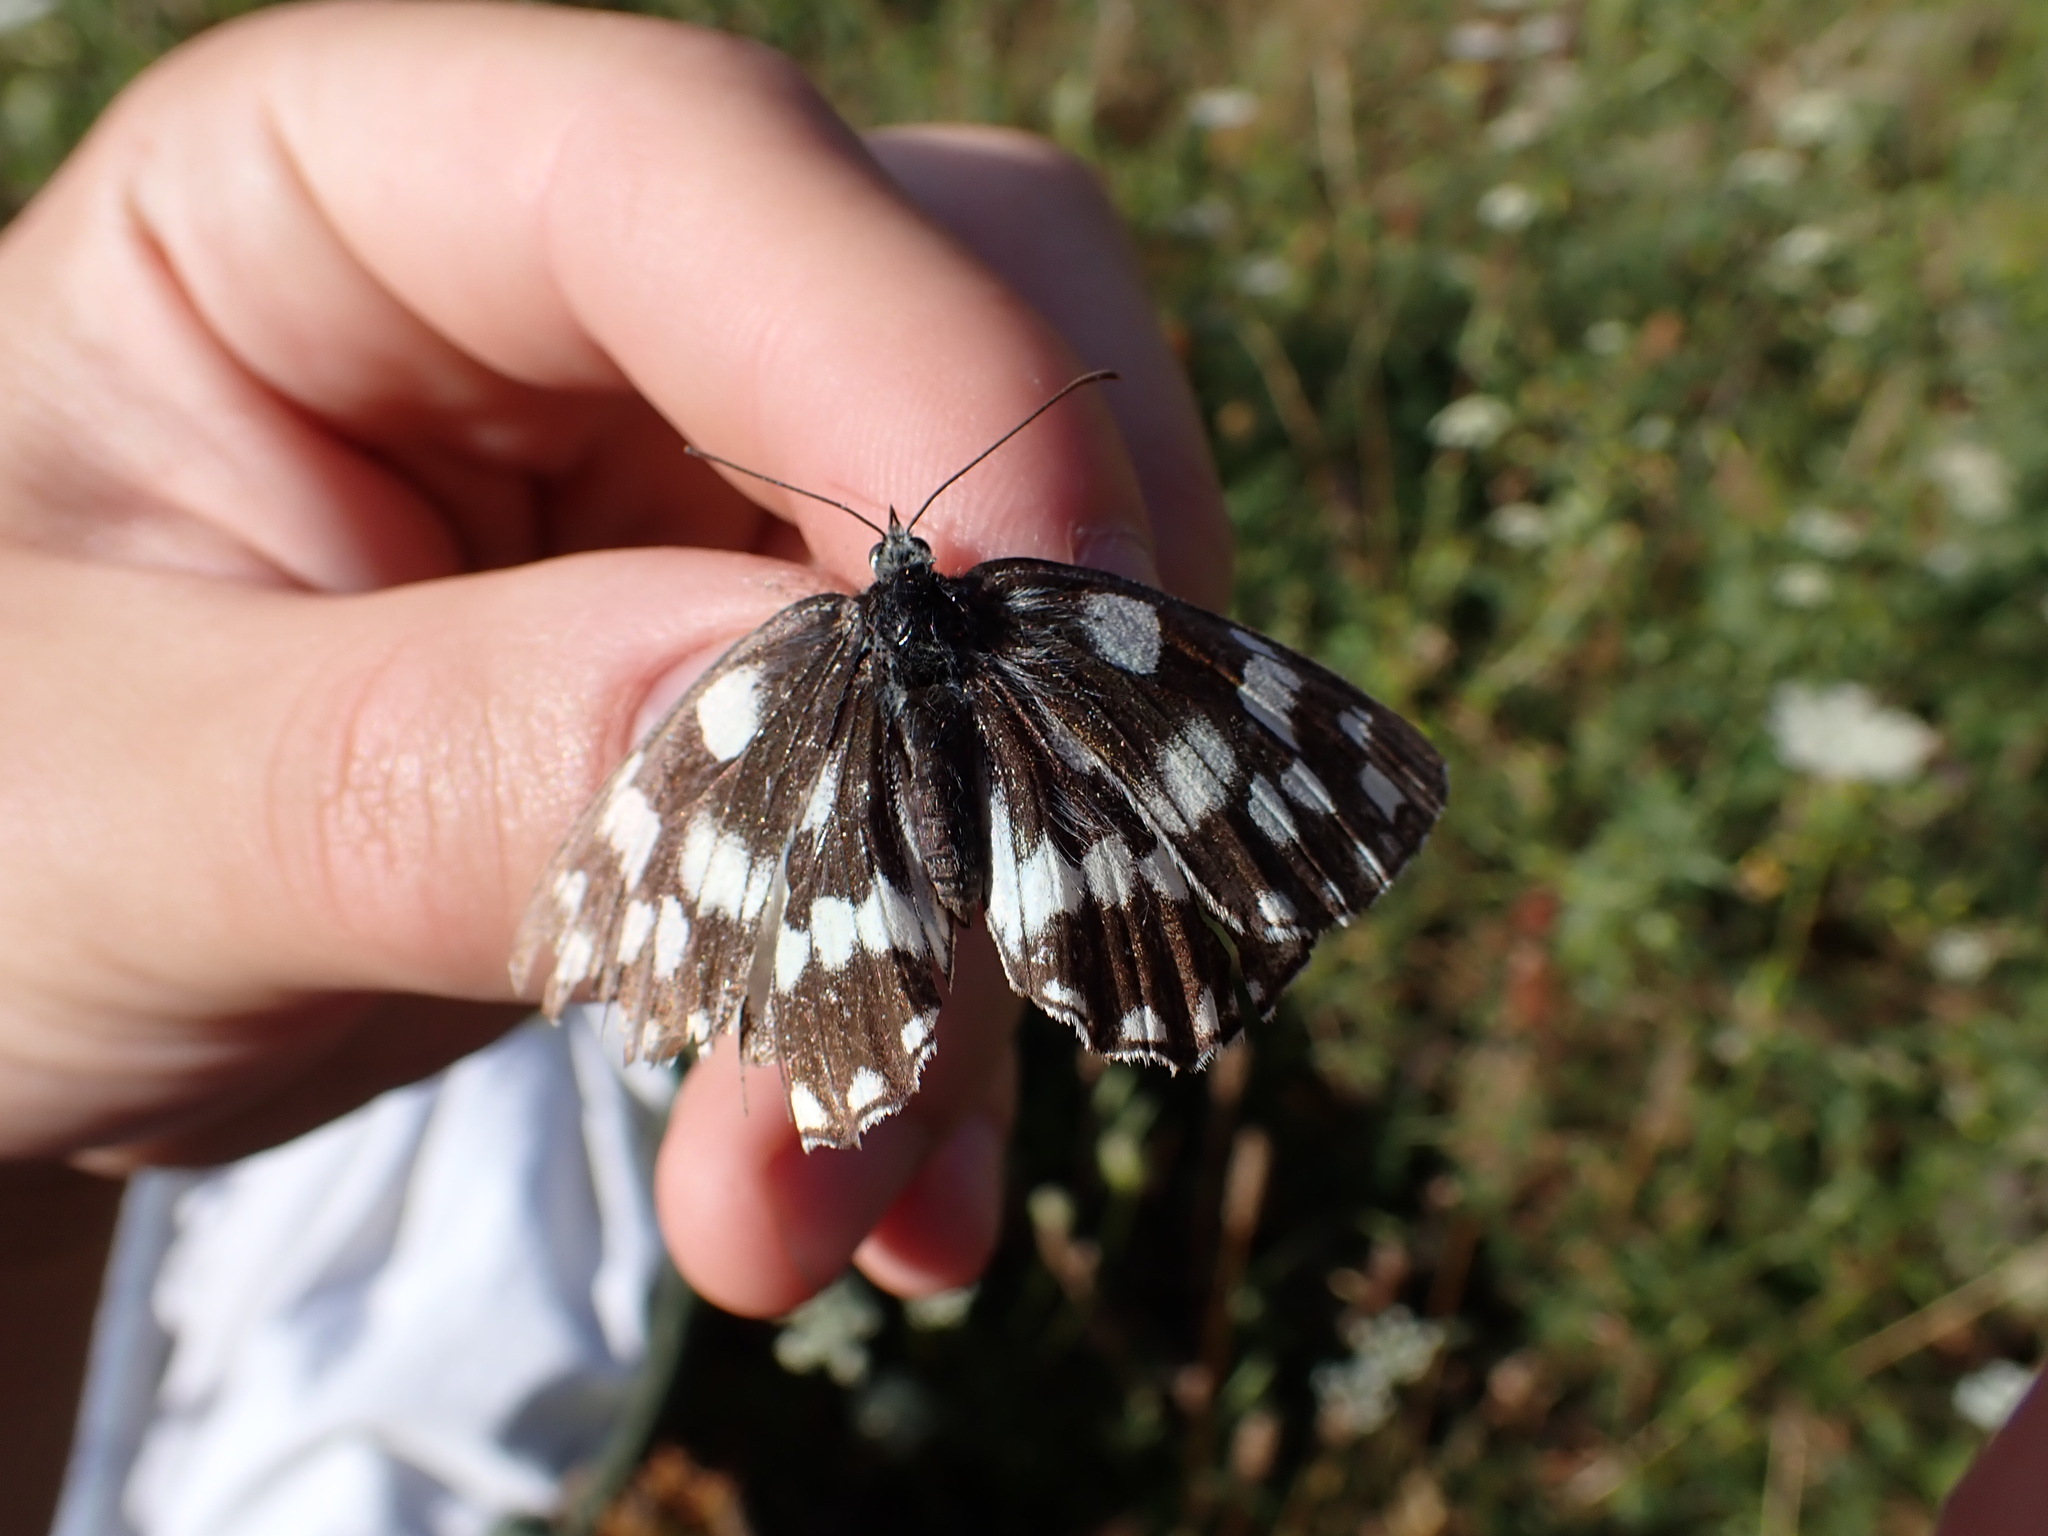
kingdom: Animalia
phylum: Arthropoda
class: Insecta
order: Lepidoptera
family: Nymphalidae
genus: Melanargia
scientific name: Melanargia galathea
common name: Marbled white
